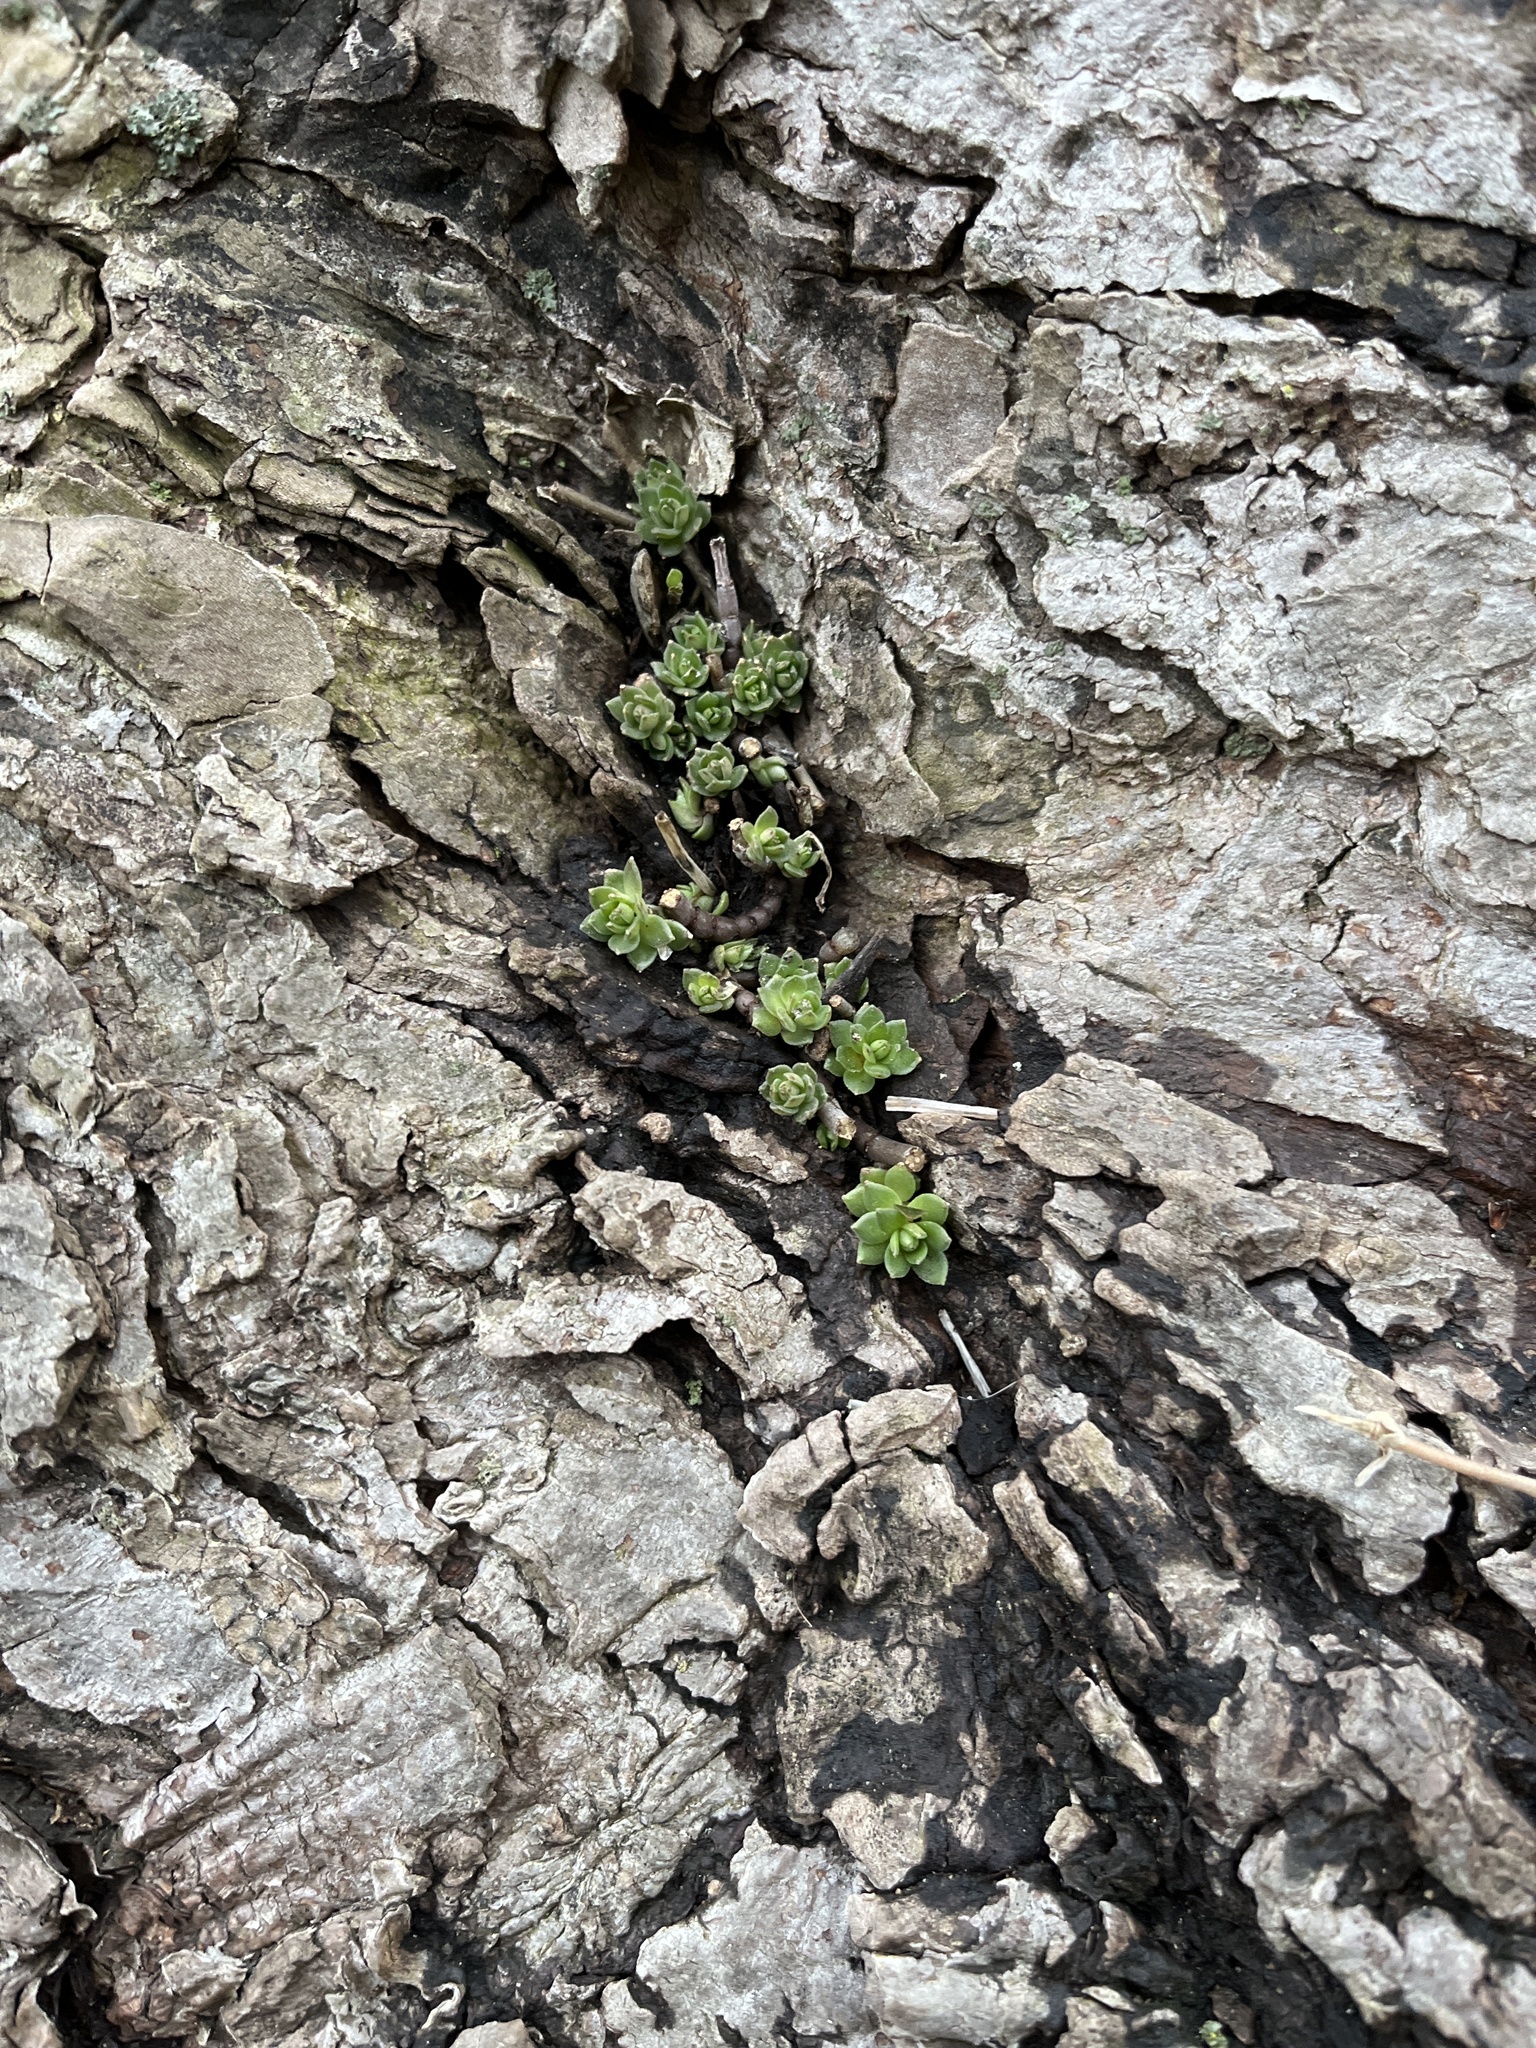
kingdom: Plantae
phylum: Tracheophyta
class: Magnoliopsida
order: Saxifragales
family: Crassulaceae
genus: Sedum
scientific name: Sedum sarmentosum
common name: Stringy stonecrop
